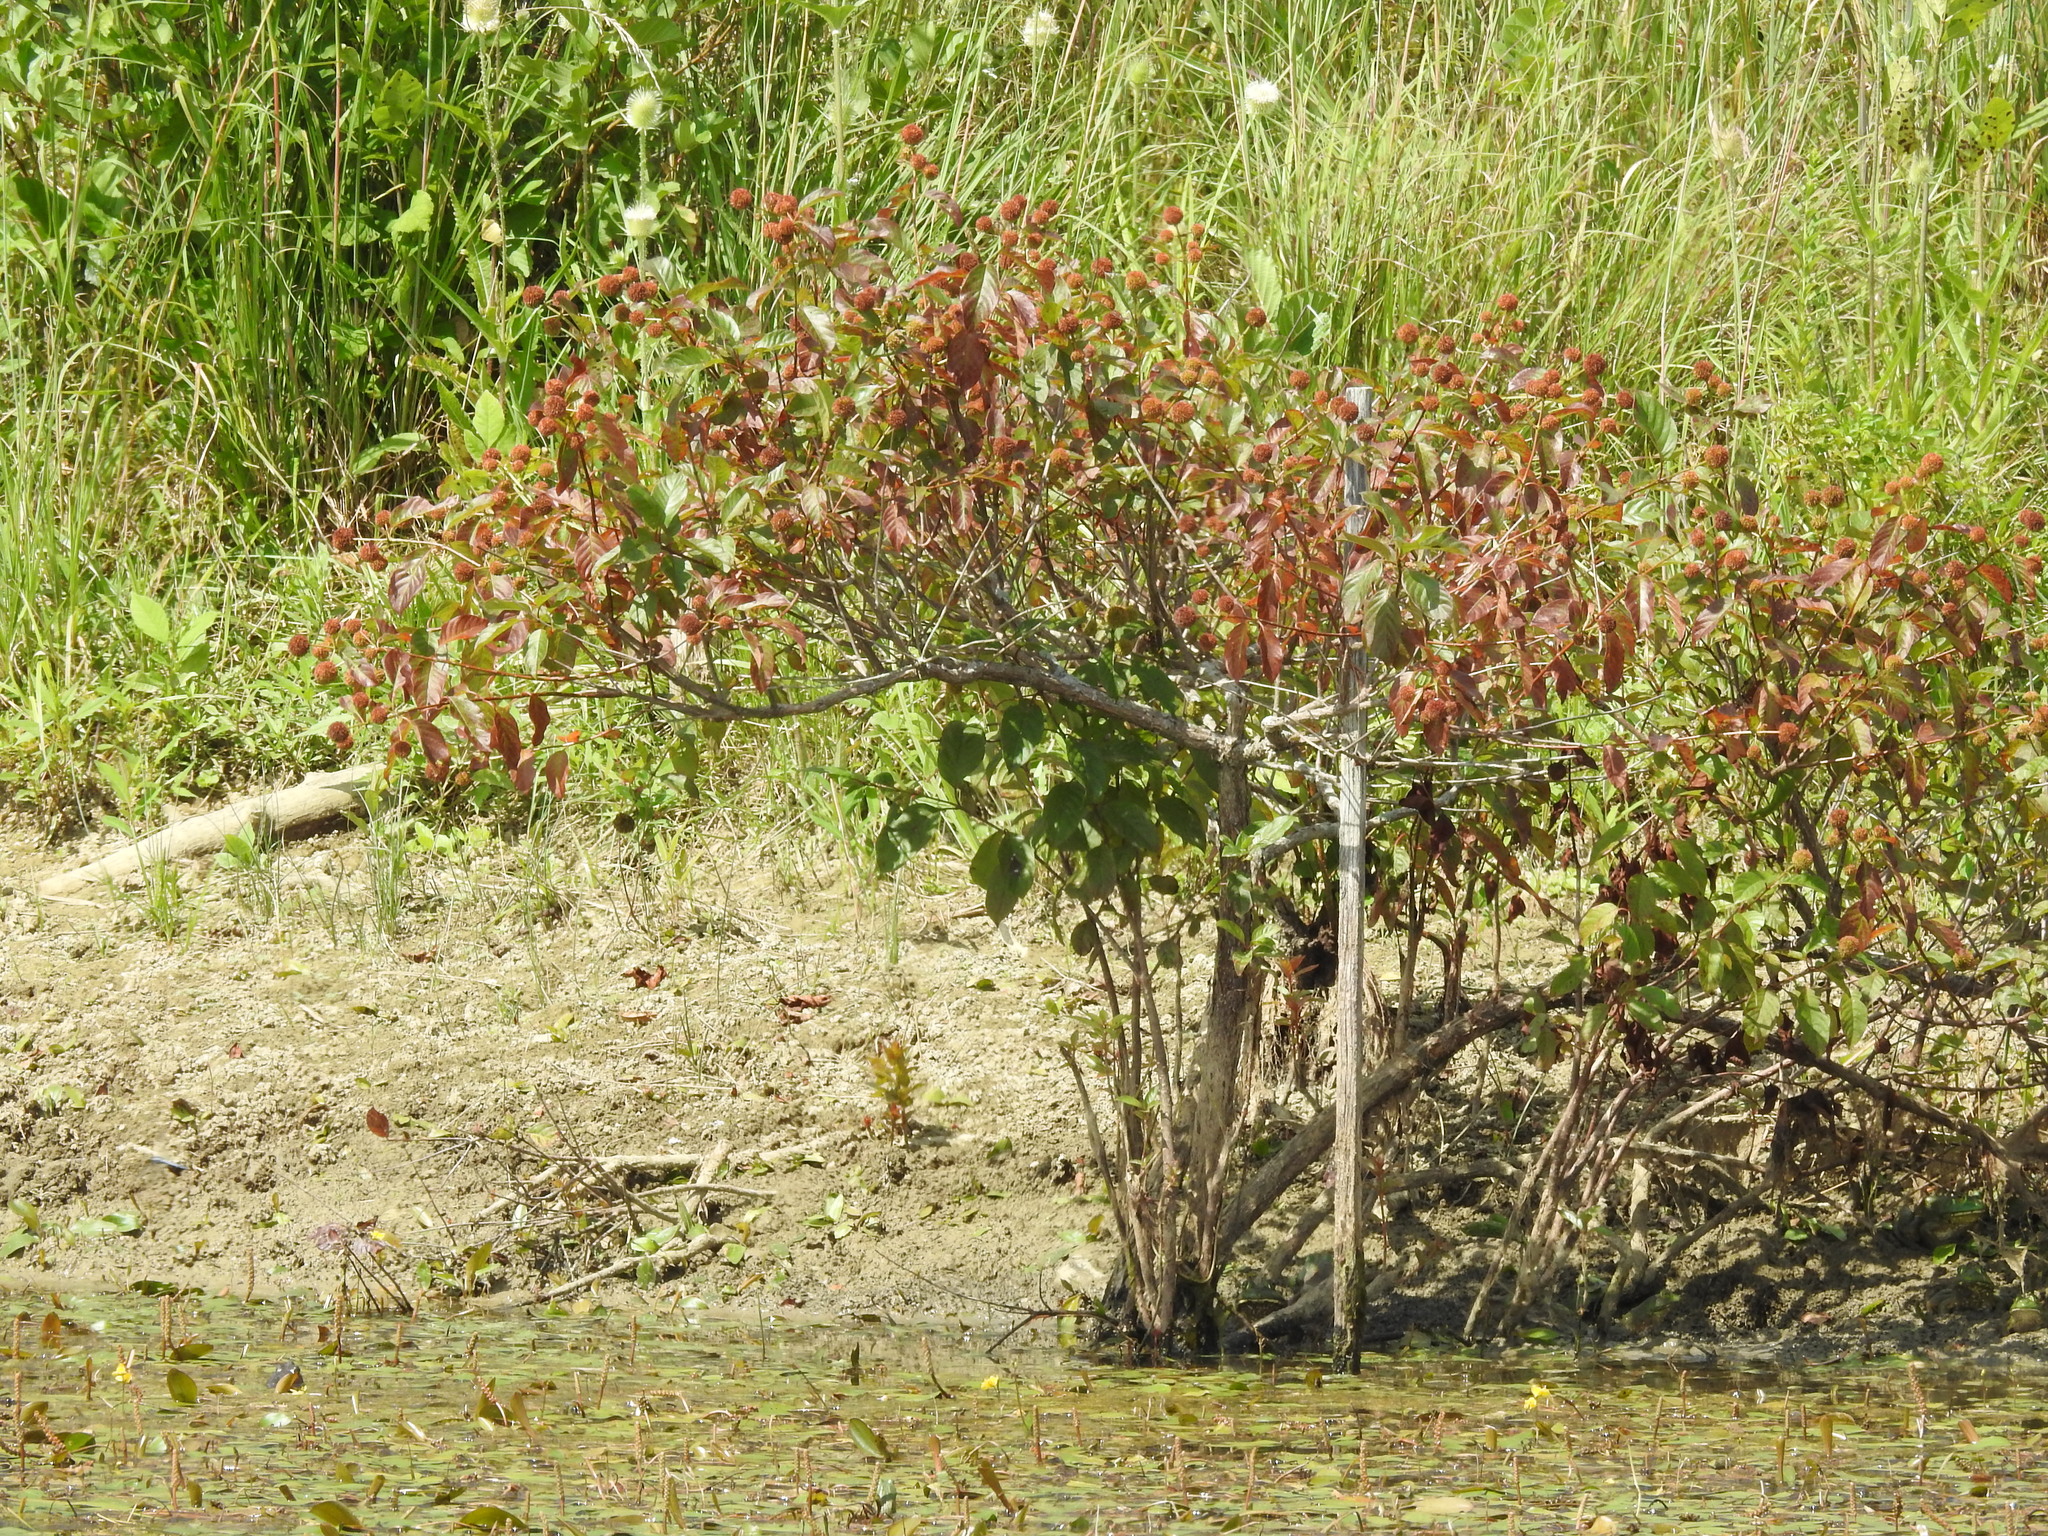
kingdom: Plantae
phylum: Tracheophyta
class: Magnoliopsida
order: Gentianales
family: Rubiaceae
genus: Cephalanthus
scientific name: Cephalanthus occidentalis
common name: Button-willow
